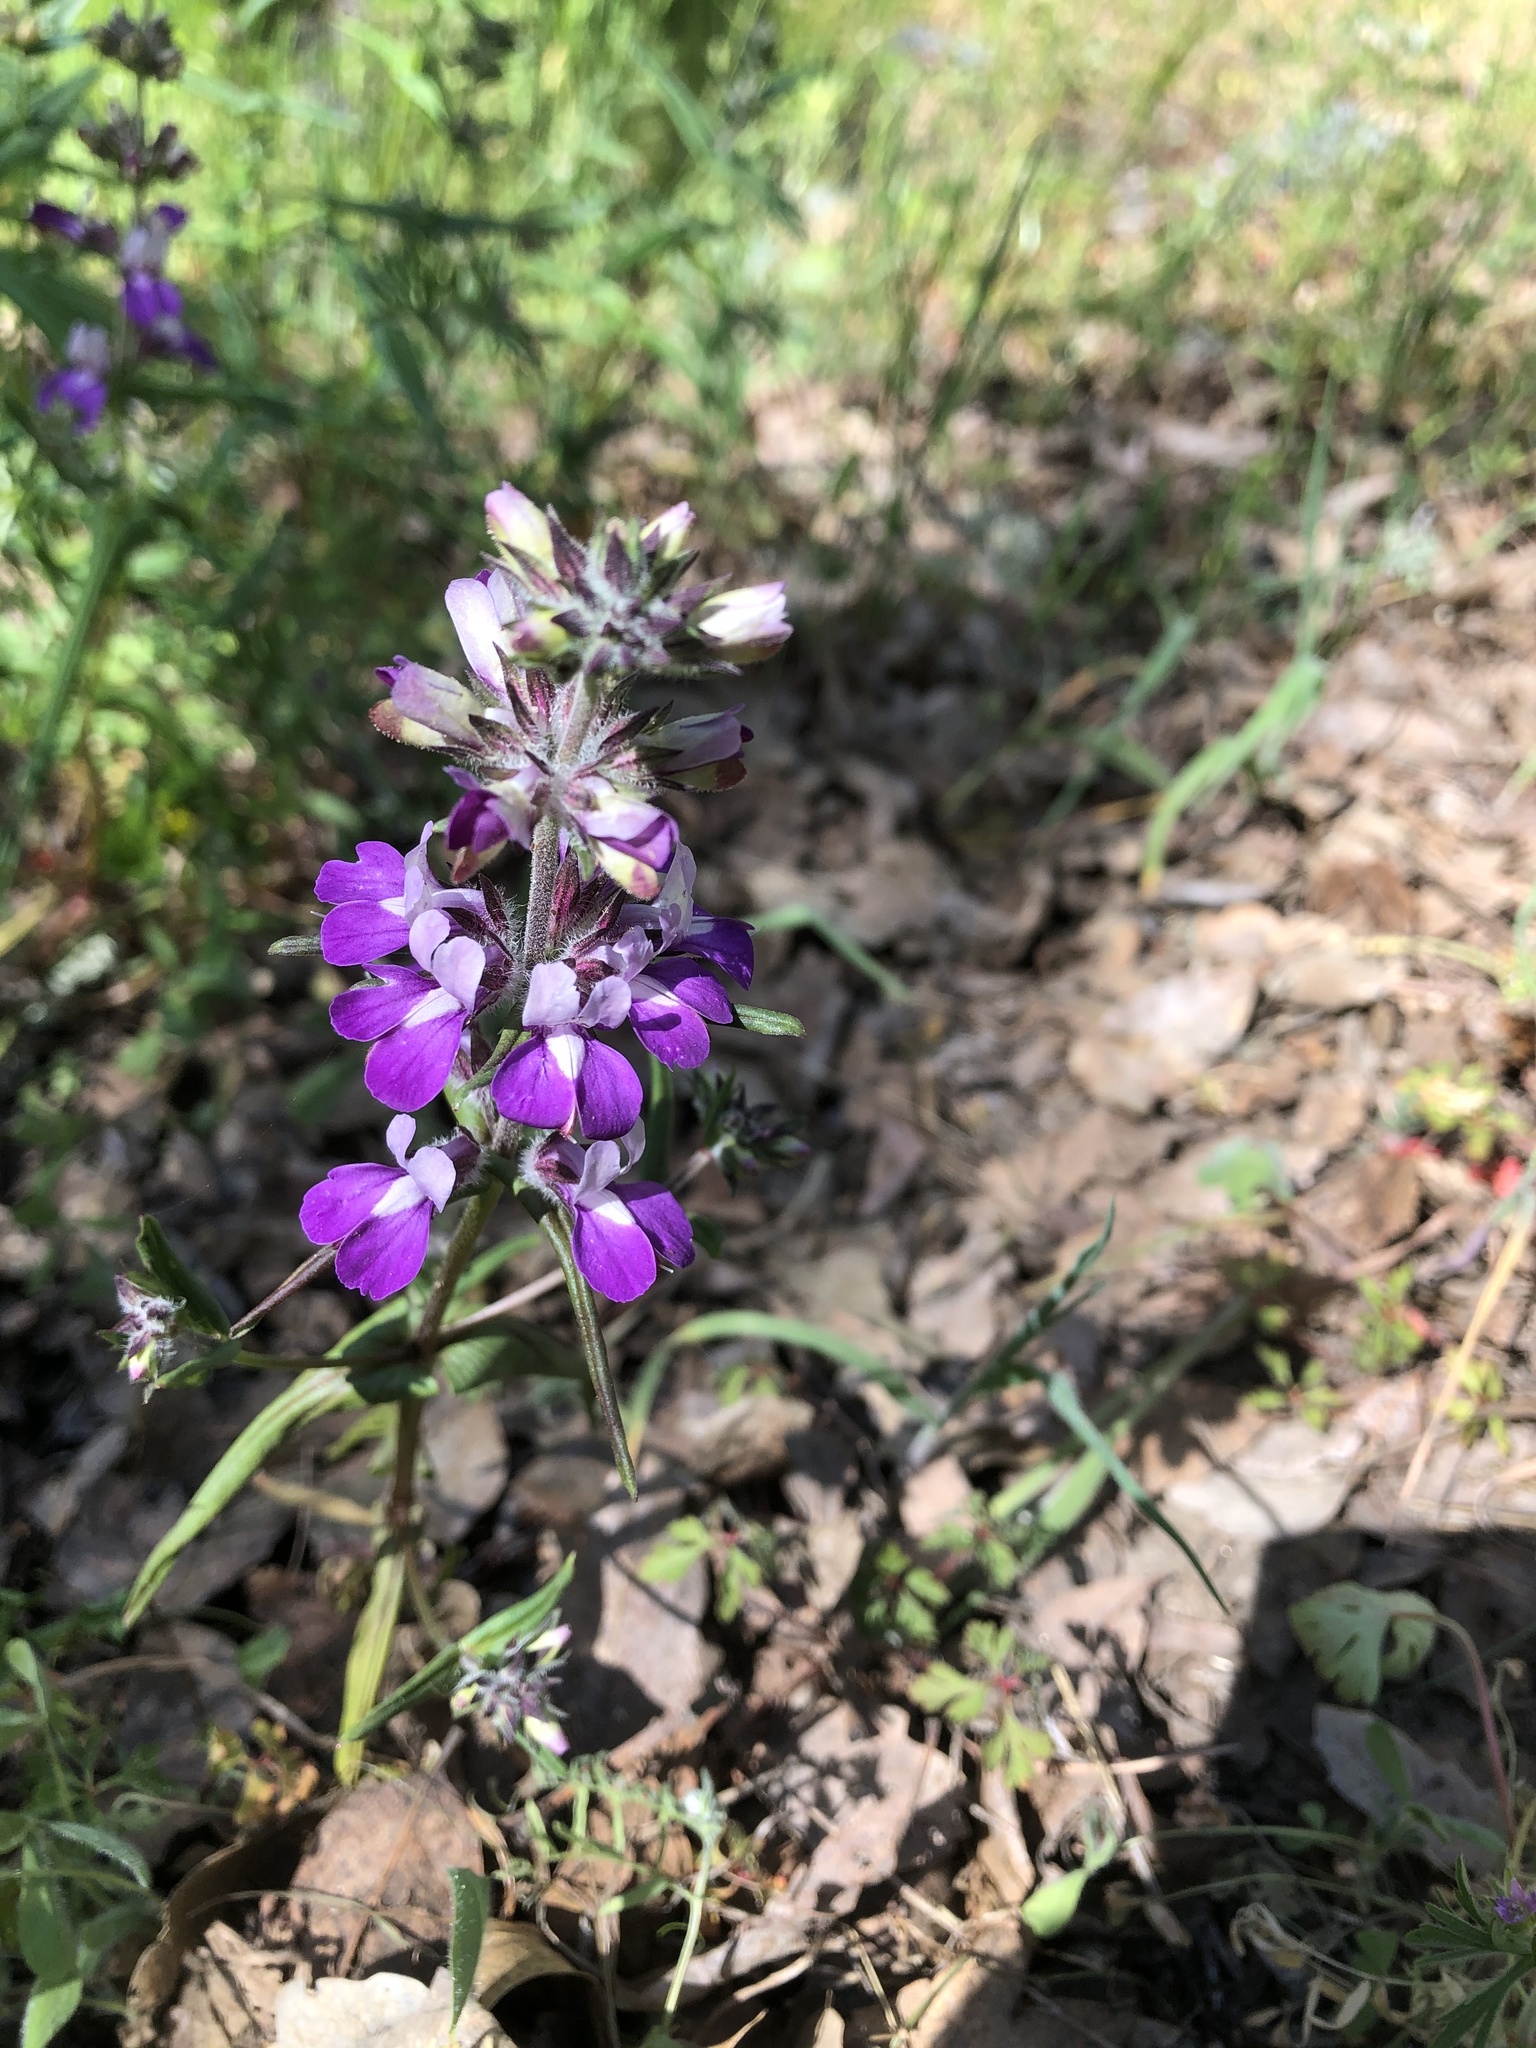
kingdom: Plantae
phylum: Tracheophyta
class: Magnoliopsida
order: Lamiales
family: Plantaginaceae
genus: Collinsia
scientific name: Collinsia heterophylla
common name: Chinese-houses
